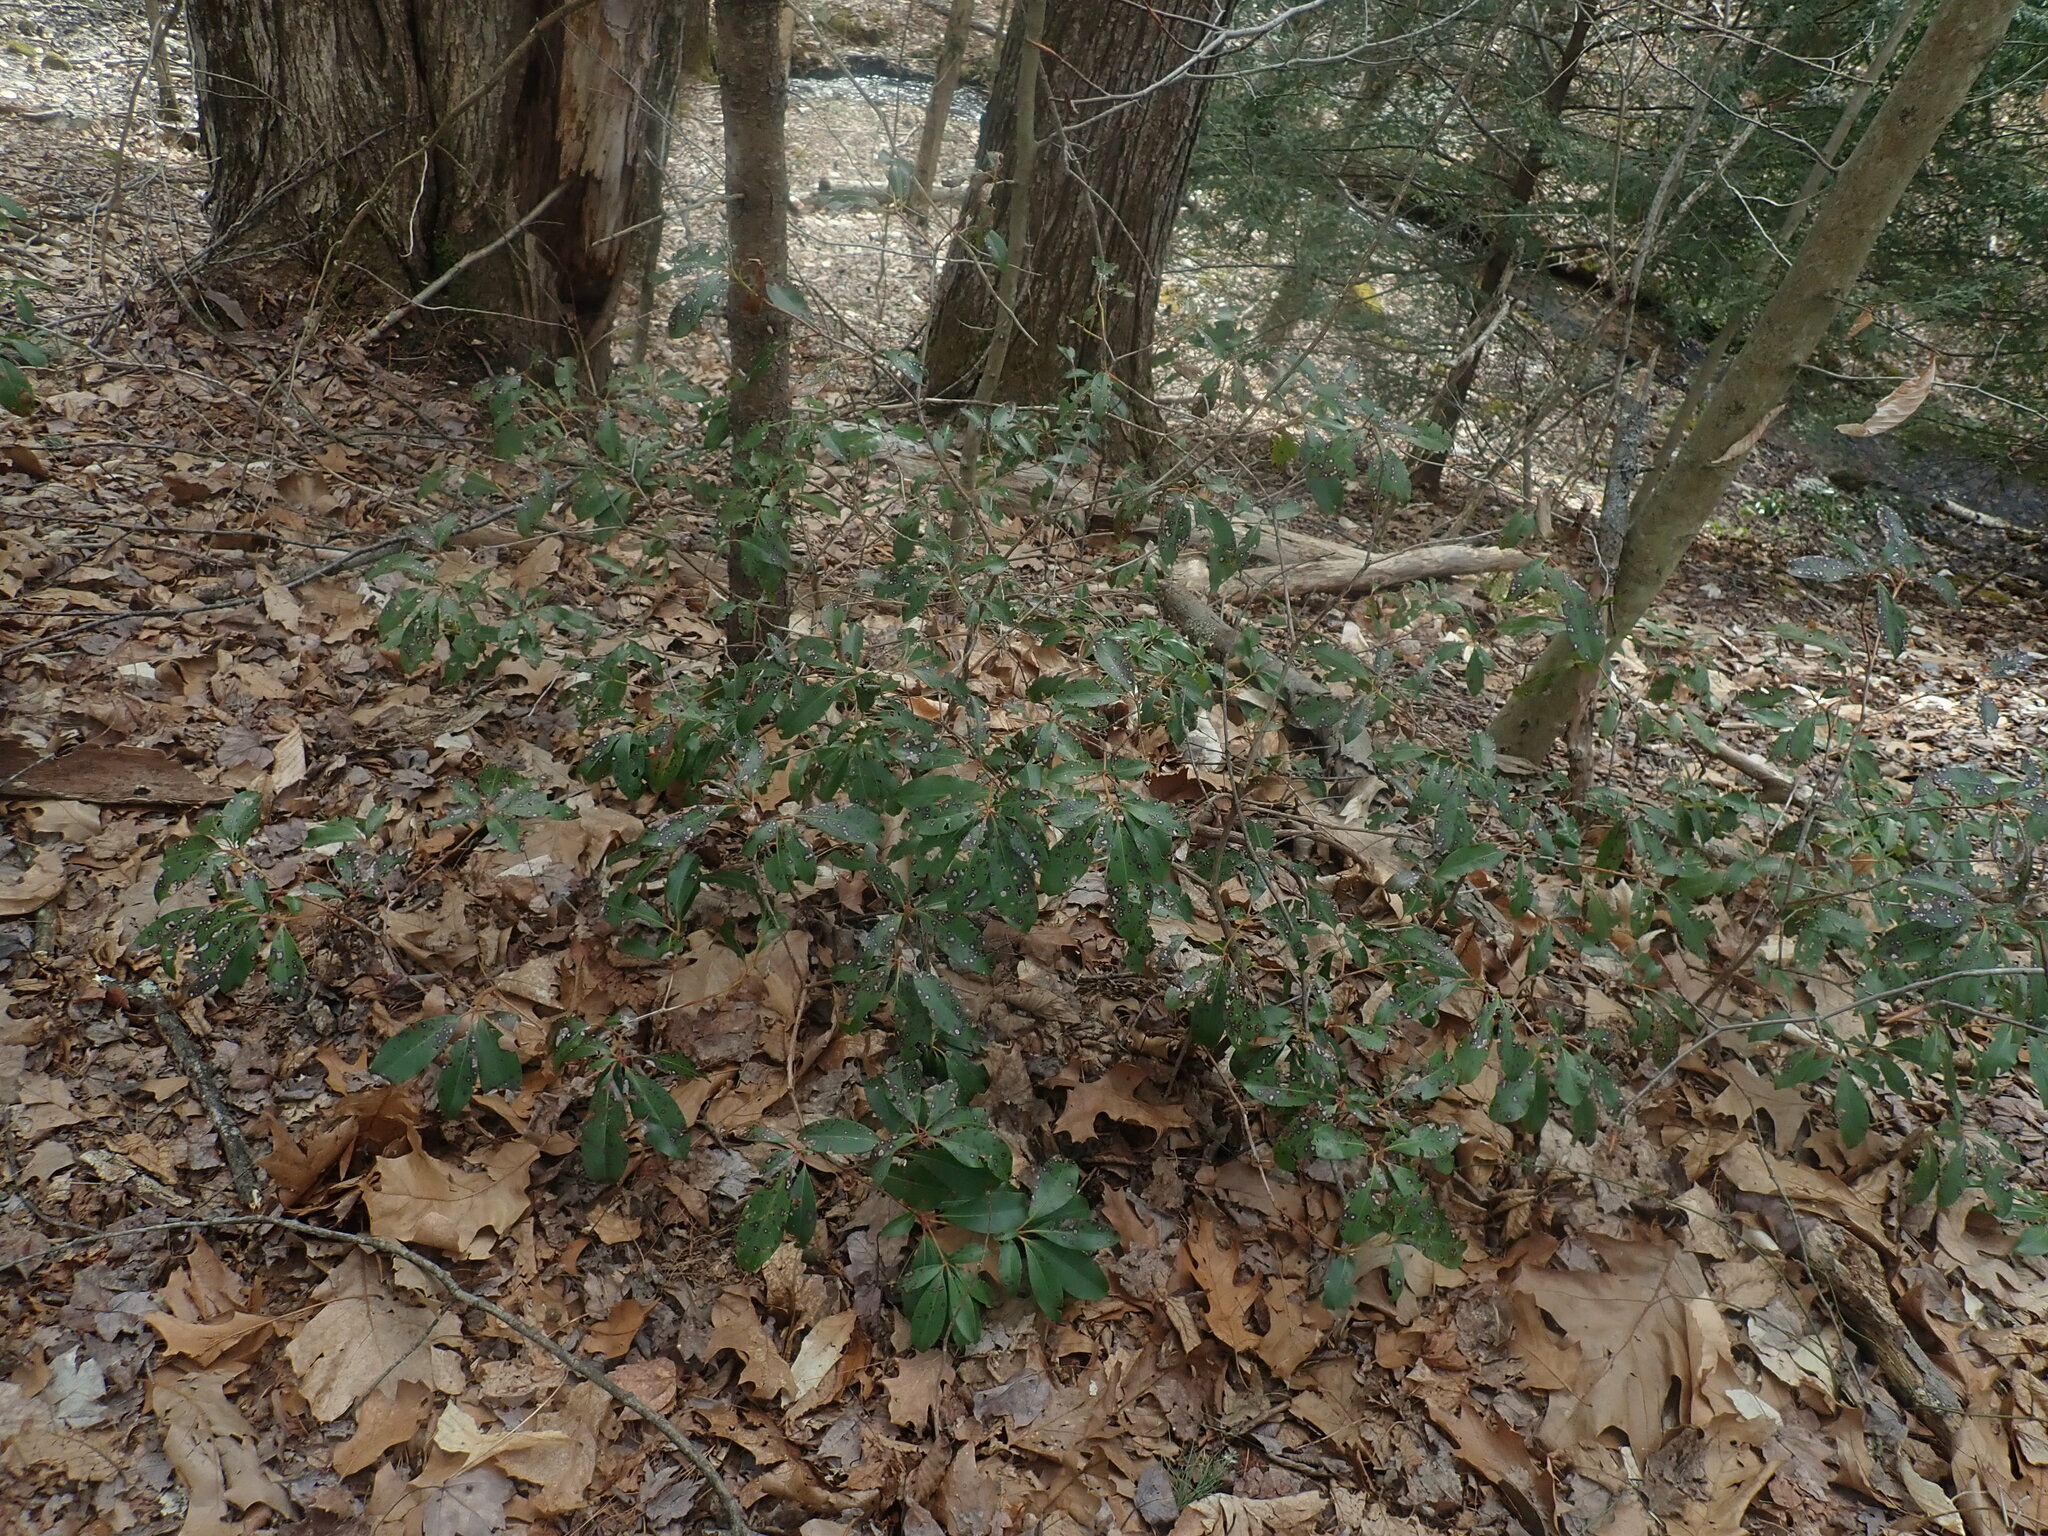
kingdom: Plantae
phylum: Tracheophyta
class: Magnoliopsida
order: Ericales
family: Ericaceae
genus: Kalmia
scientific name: Kalmia latifolia
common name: Mountain-laurel
